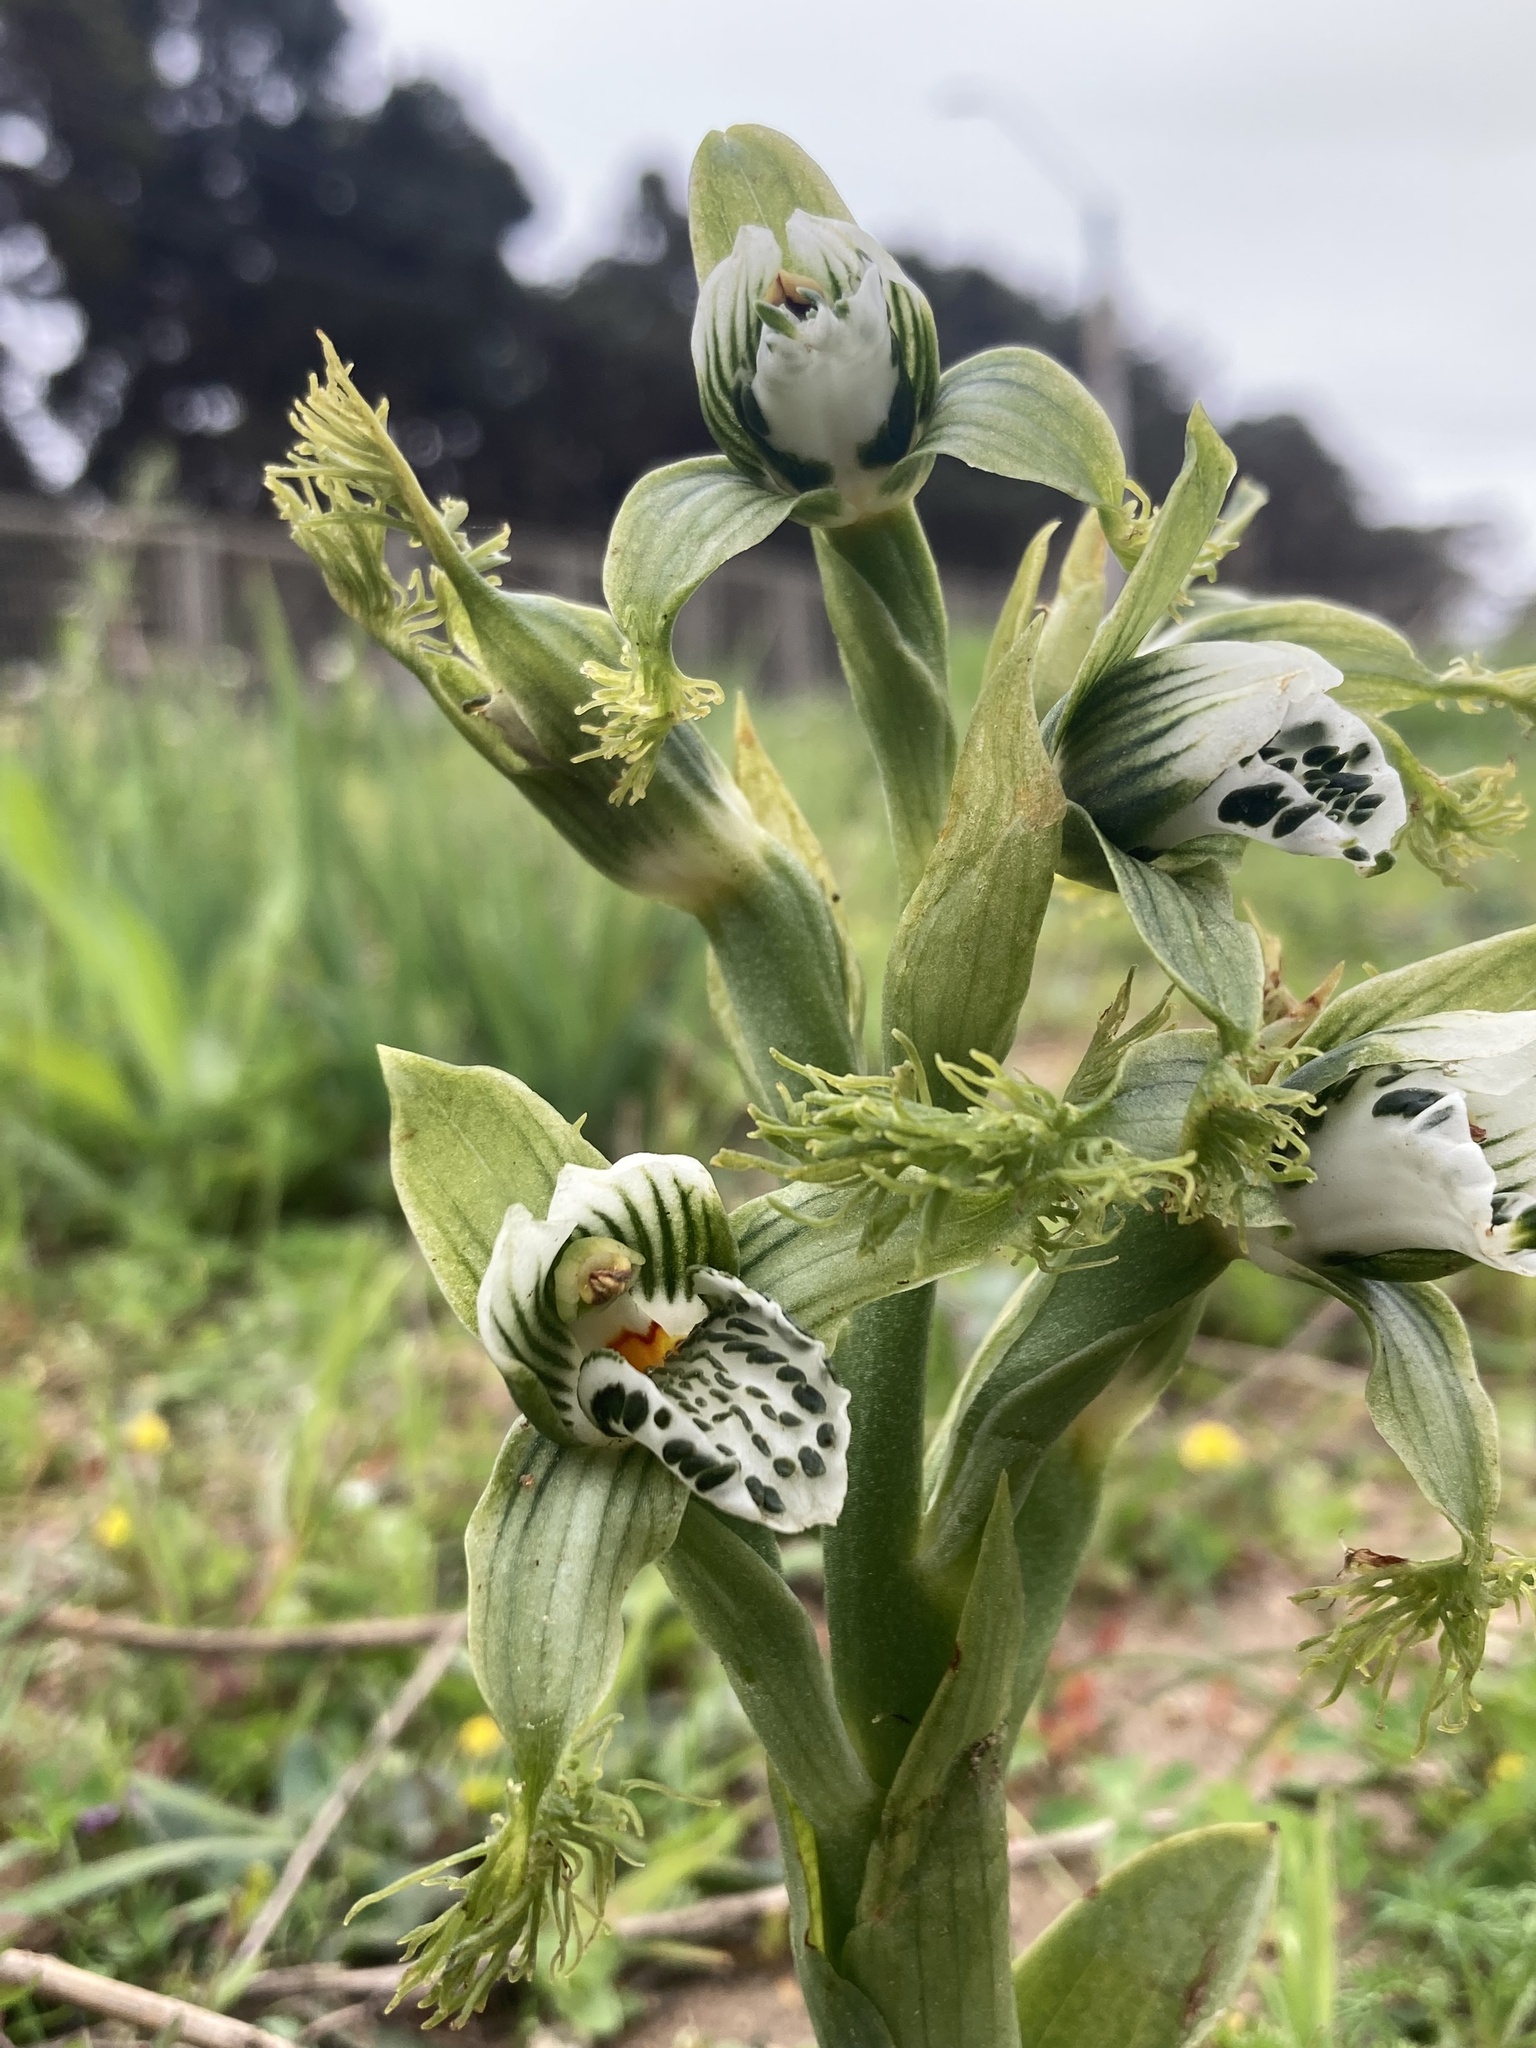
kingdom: Plantae
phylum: Tracheophyta
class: Liliopsida
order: Asparagales
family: Orchidaceae
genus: Bipinnula
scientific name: Bipinnula fimbriata
